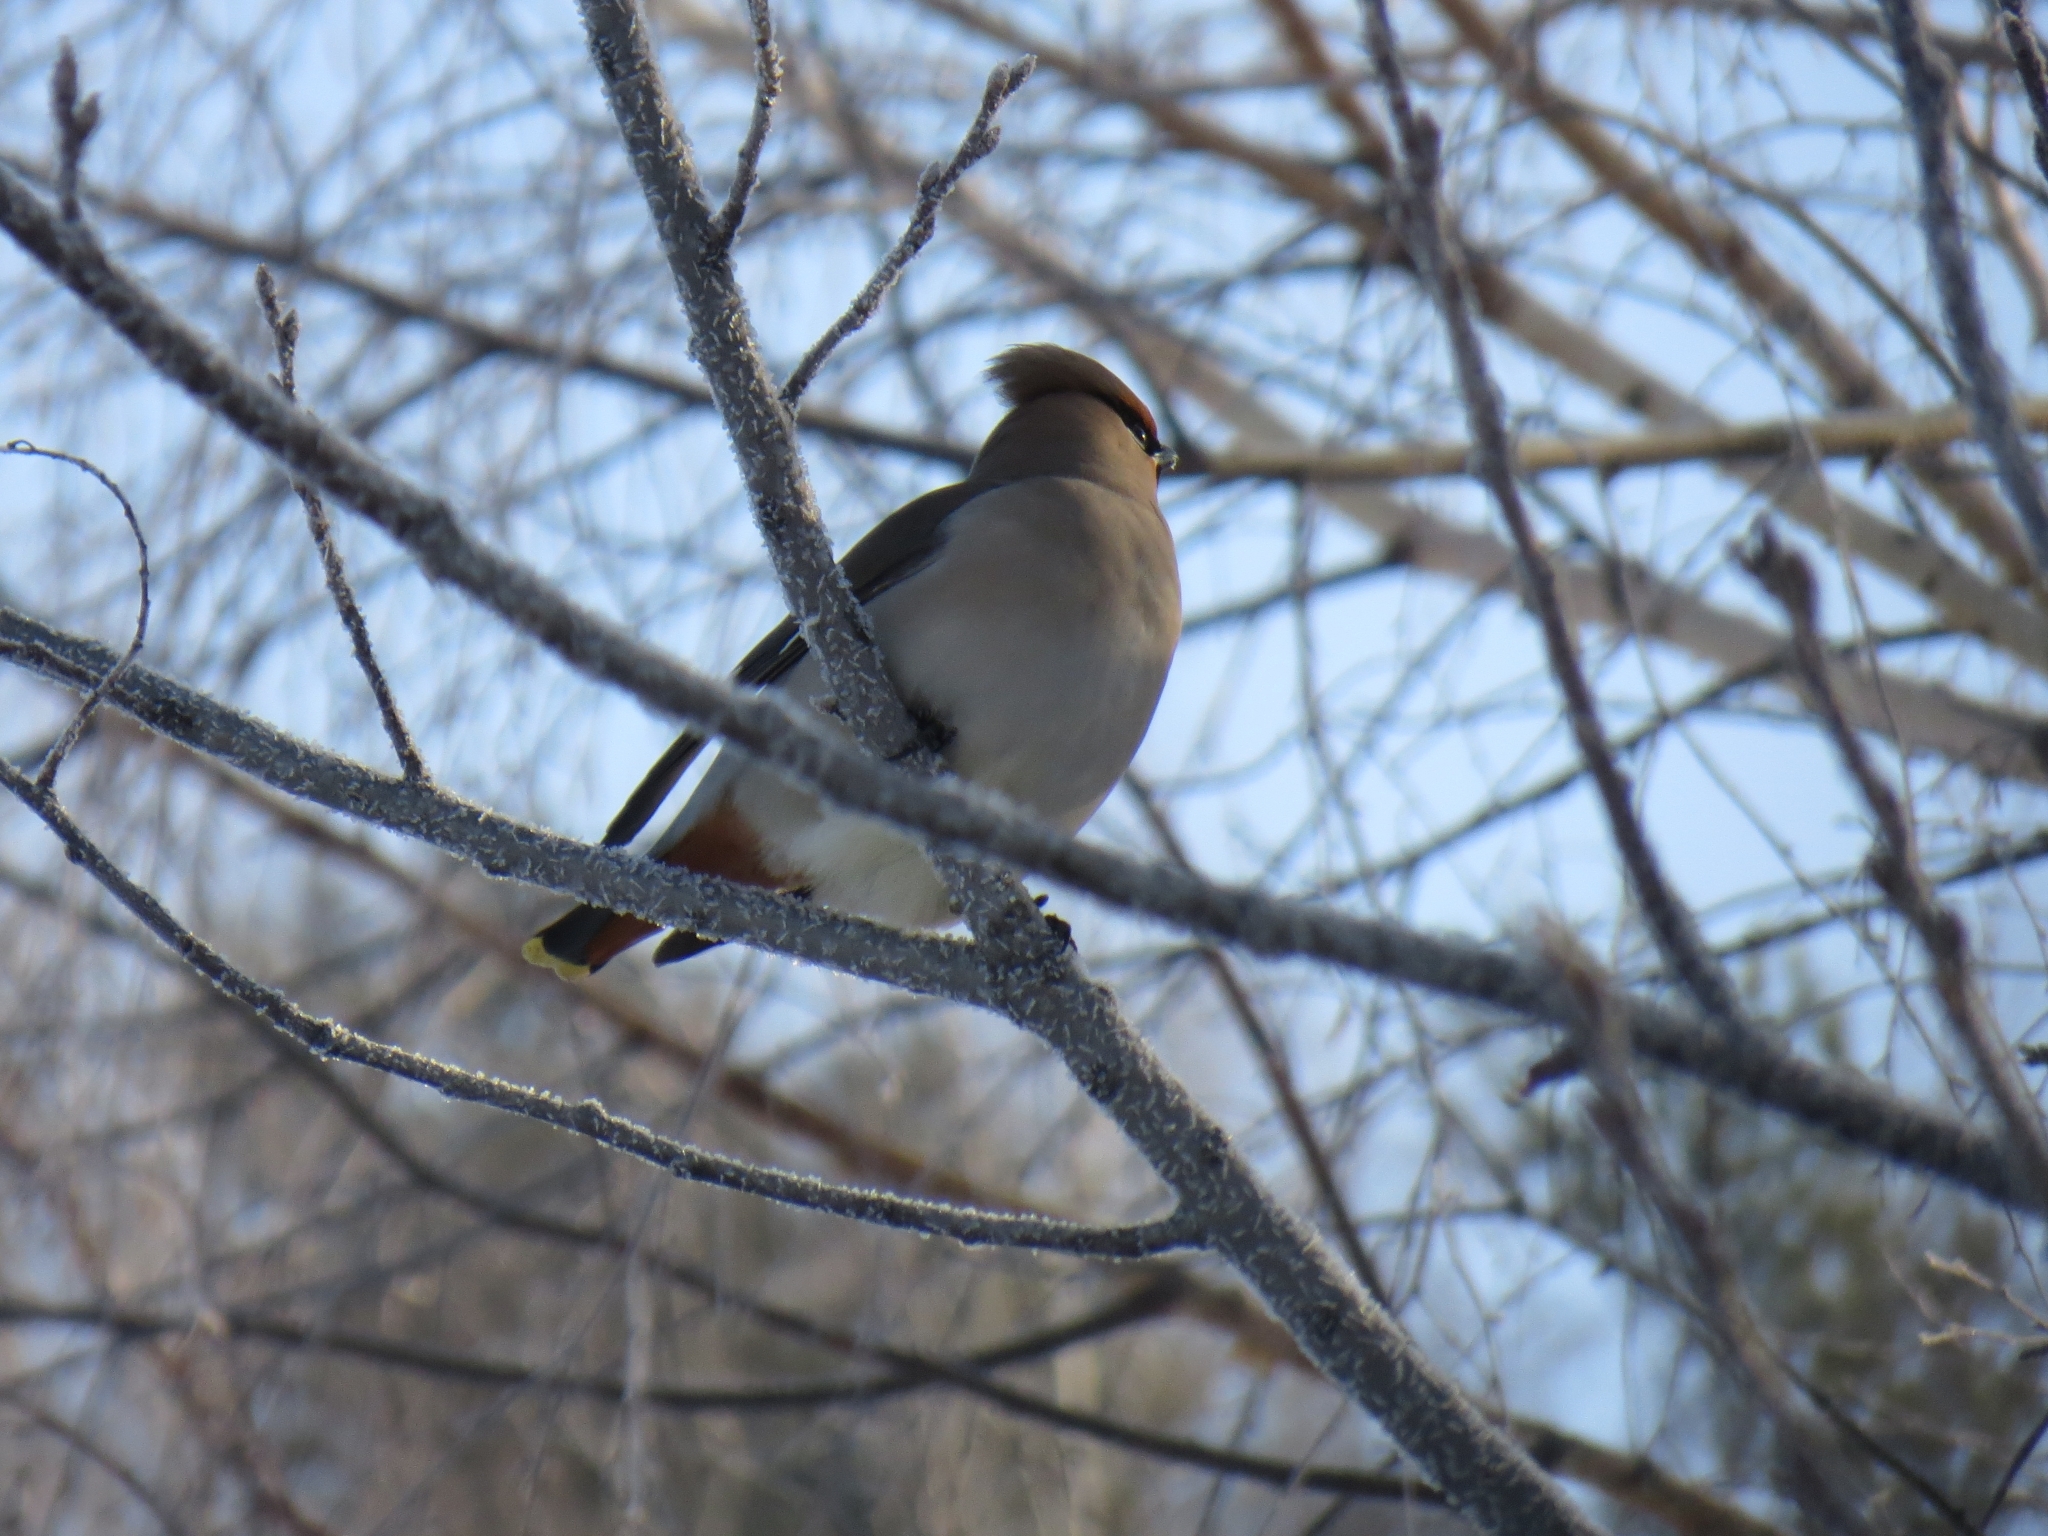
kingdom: Animalia
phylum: Chordata
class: Aves
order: Passeriformes
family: Bombycillidae
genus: Bombycilla
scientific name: Bombycilla garrulus
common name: Bohemian waxwing
